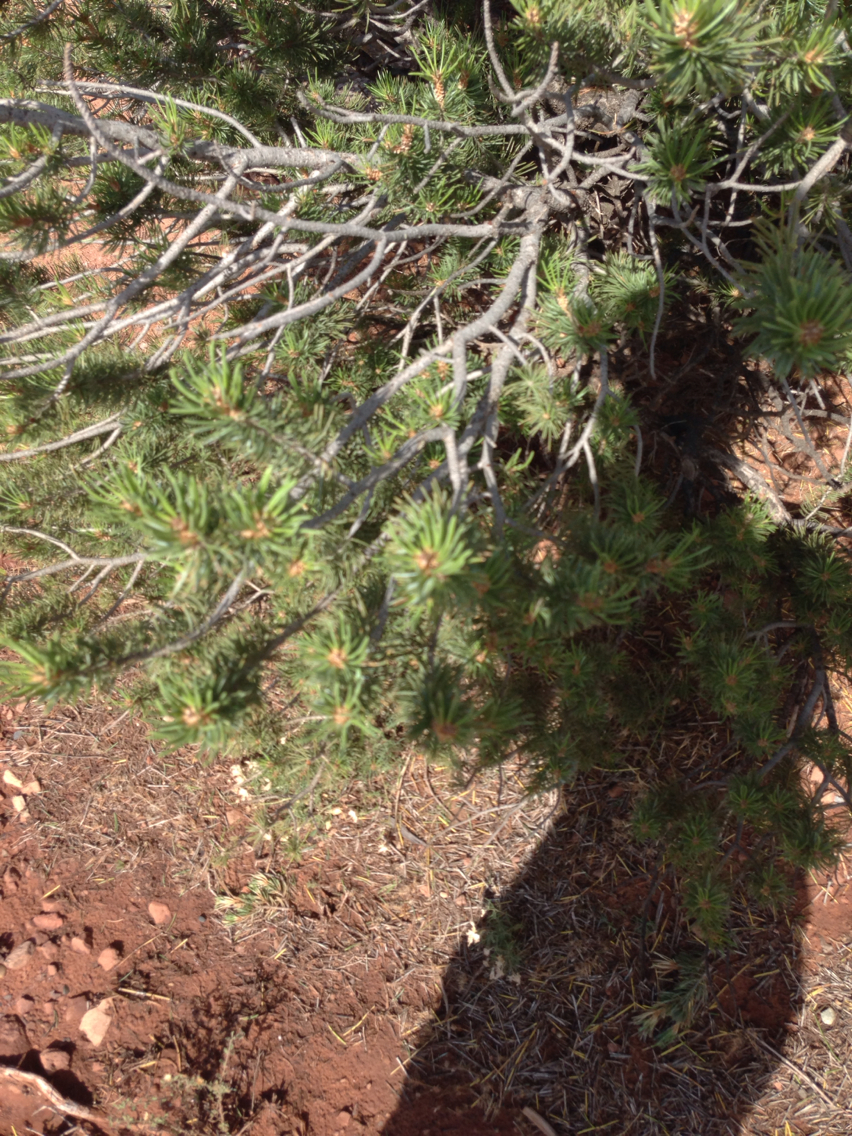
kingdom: Plantae
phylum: Tracheophyta
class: Pinopsida
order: Pinales
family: Pinaceae
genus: Pinus
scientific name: Pinus edulis
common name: Colorado pinyon
